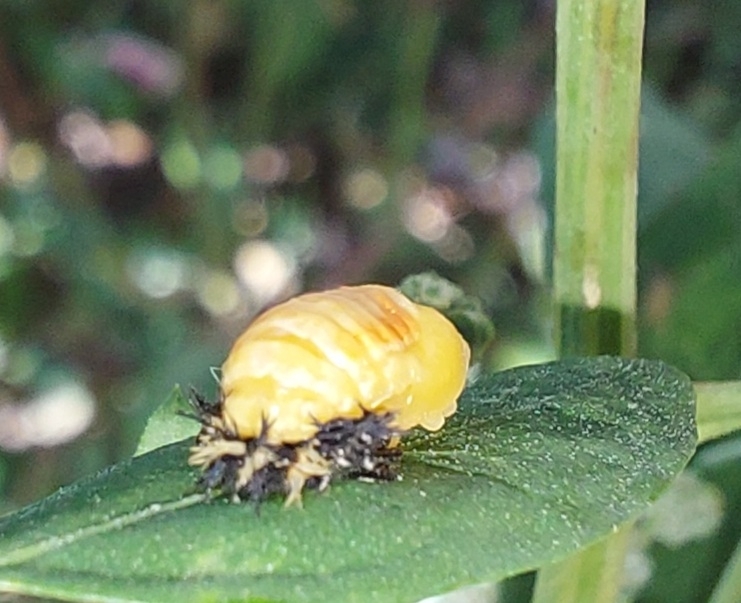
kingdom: Animalia
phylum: Arthropoda
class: Insecta
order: Coleoptera
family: Coccinellidae
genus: Harmonia
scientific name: Harmonia axyridis
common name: Harlequin ladybird
